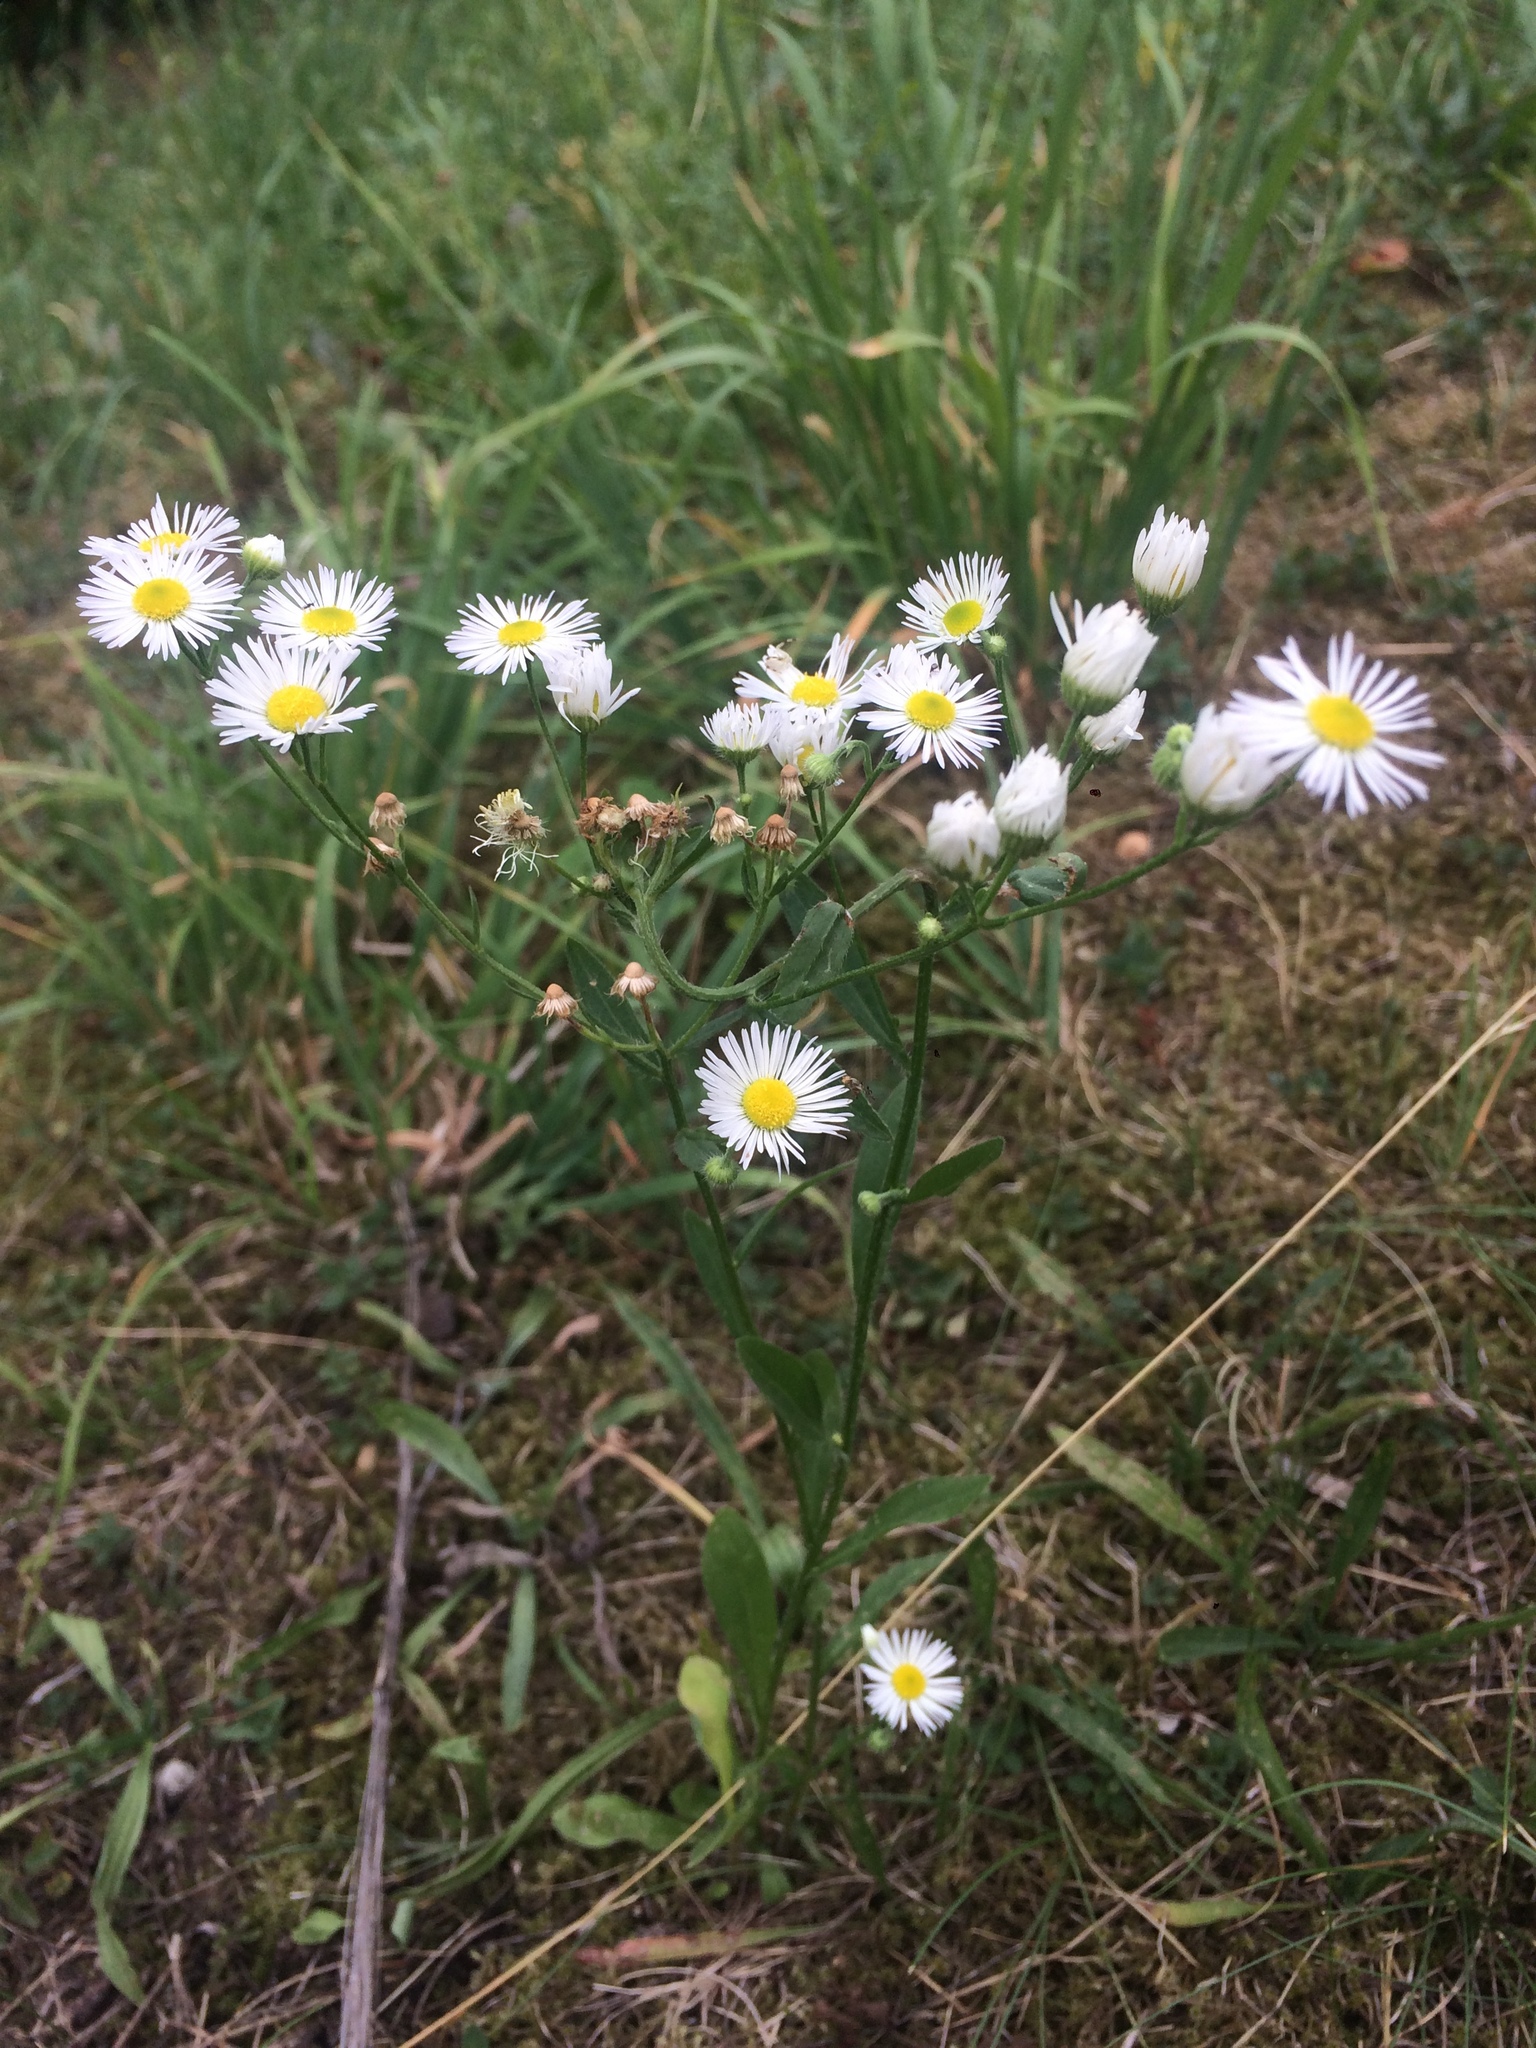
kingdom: Plantae
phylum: Tracheophyta
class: Magnoliopsida
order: Asterales
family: Asteraceae
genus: Erigeron
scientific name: Erigeron annuus
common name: Tall fleabane
